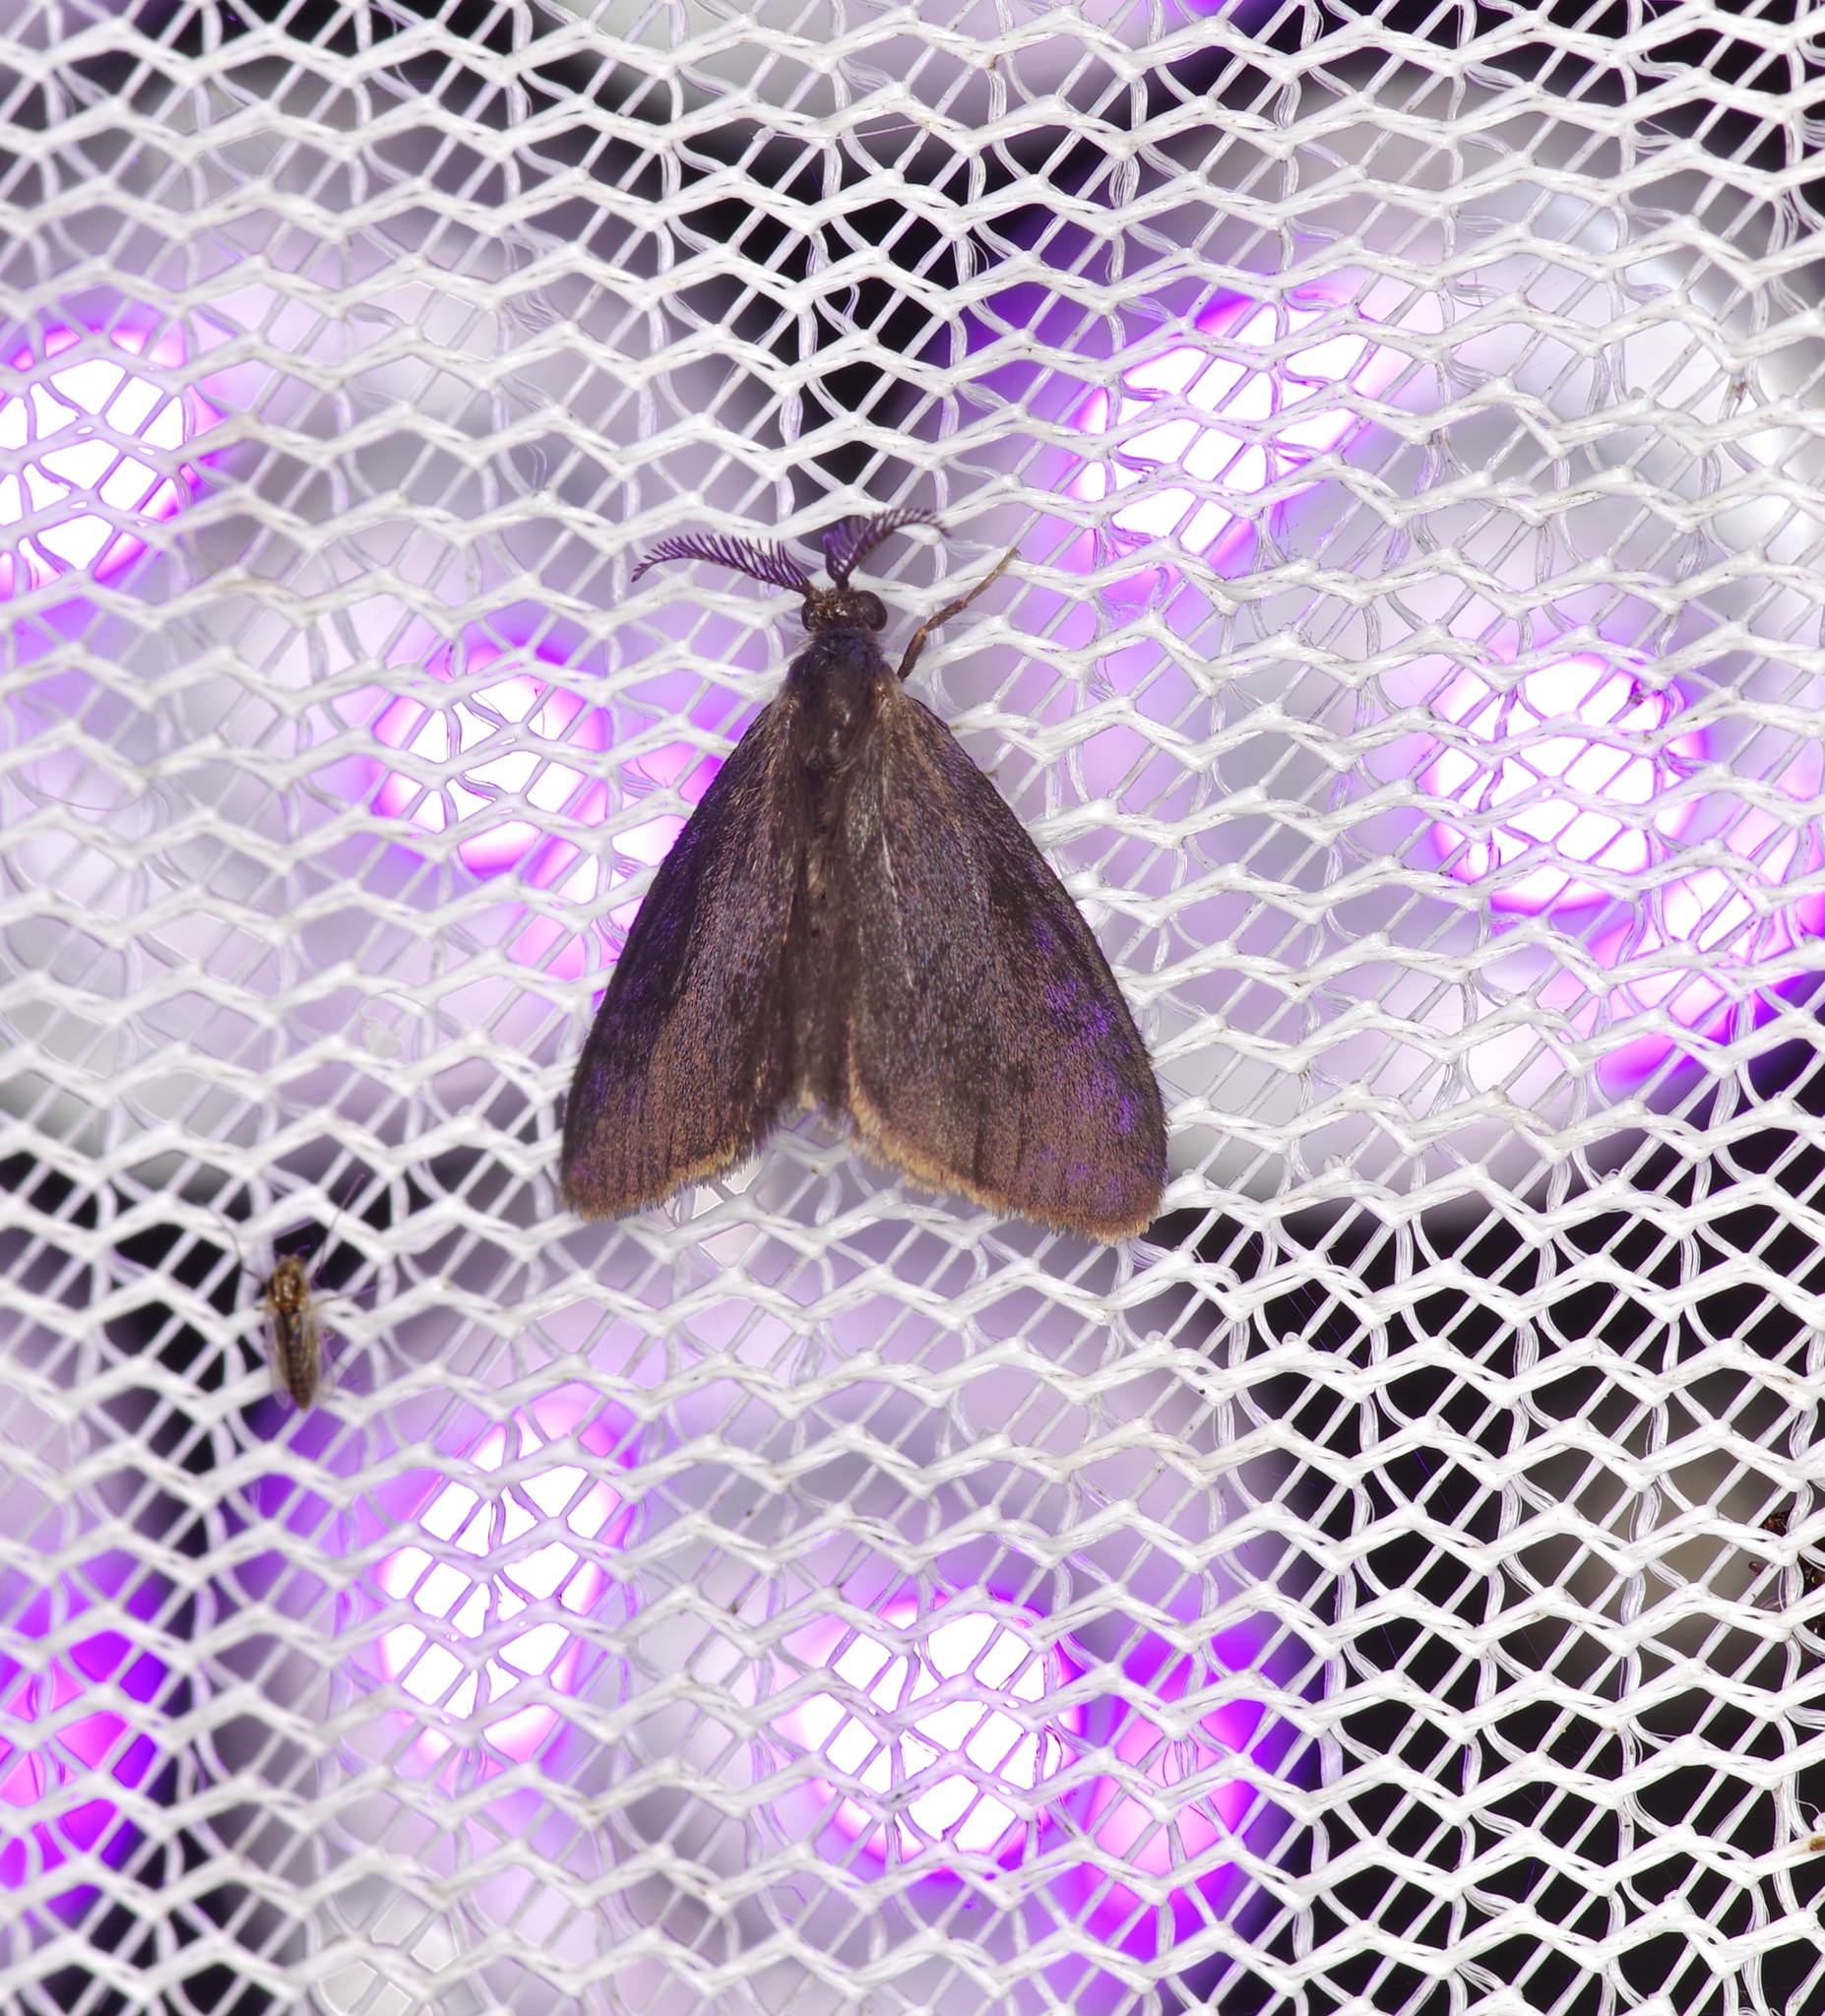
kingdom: Animalia
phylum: Arthropoda
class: Insecta
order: Lepidoptera
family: Psychidae
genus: Cryptothelea
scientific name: Cryptothelea gloverii
